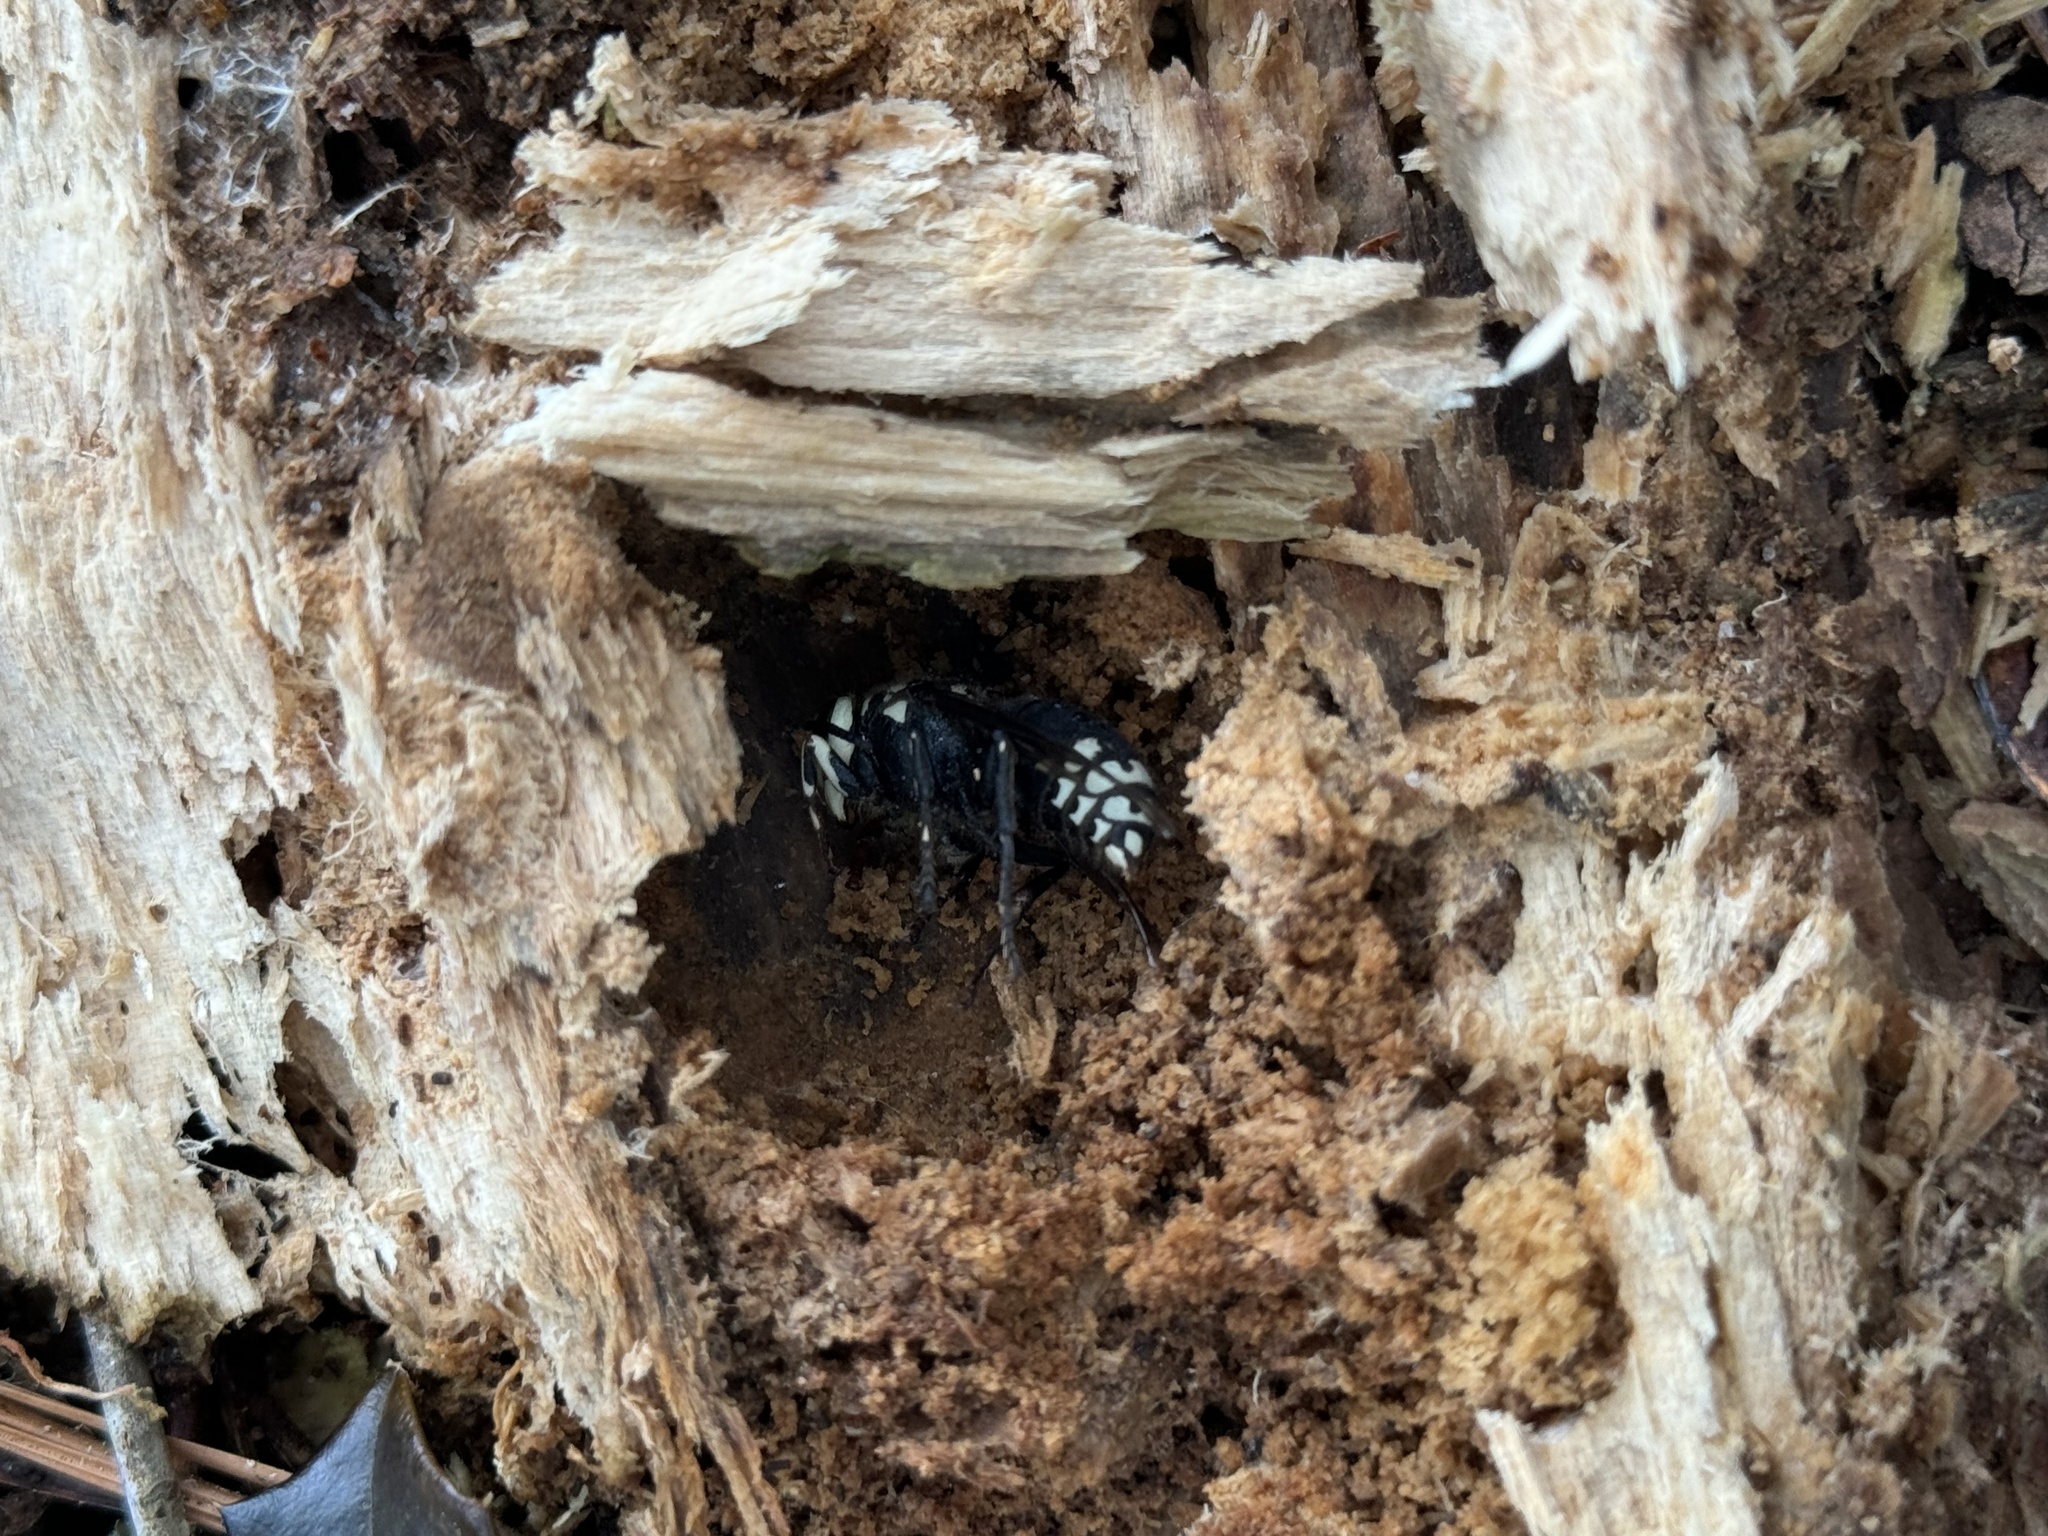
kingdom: Animalia
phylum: Arthropoda
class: Insecta
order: Hymenoptera
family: Vespidae
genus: Dolichovespula
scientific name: Dolichovespula maculata
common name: Bald-faced hornet
